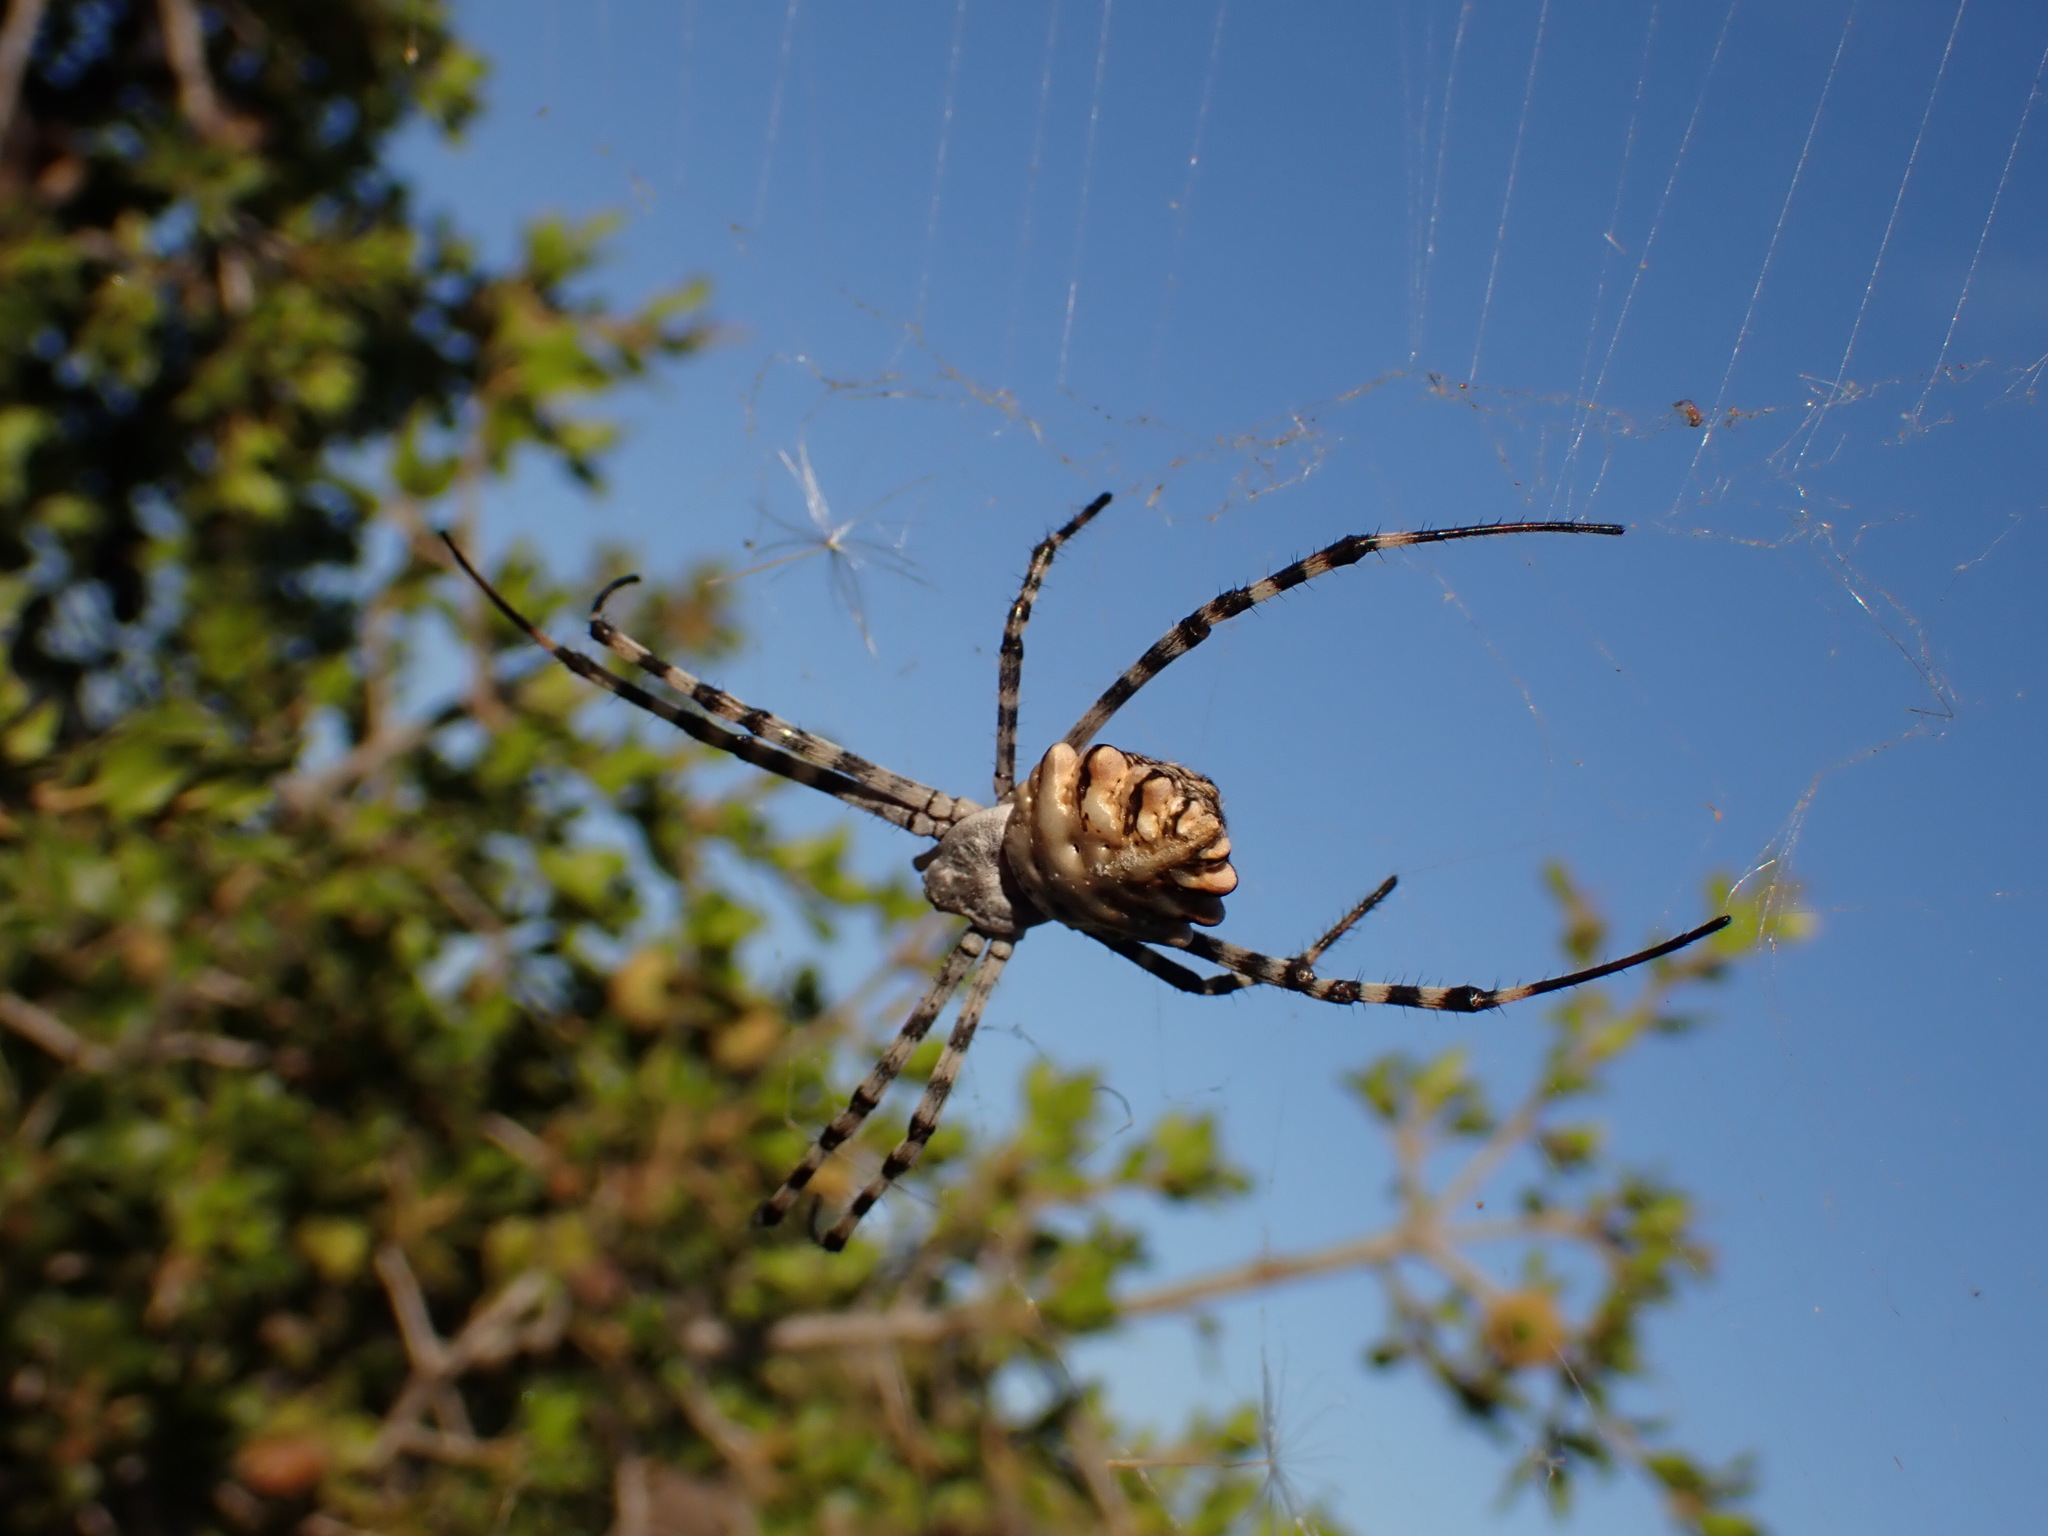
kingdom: Animalia
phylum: Arthropoda
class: Arachnida
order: Araneae
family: Araneidae
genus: Argiope
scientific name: Argiope lobata
